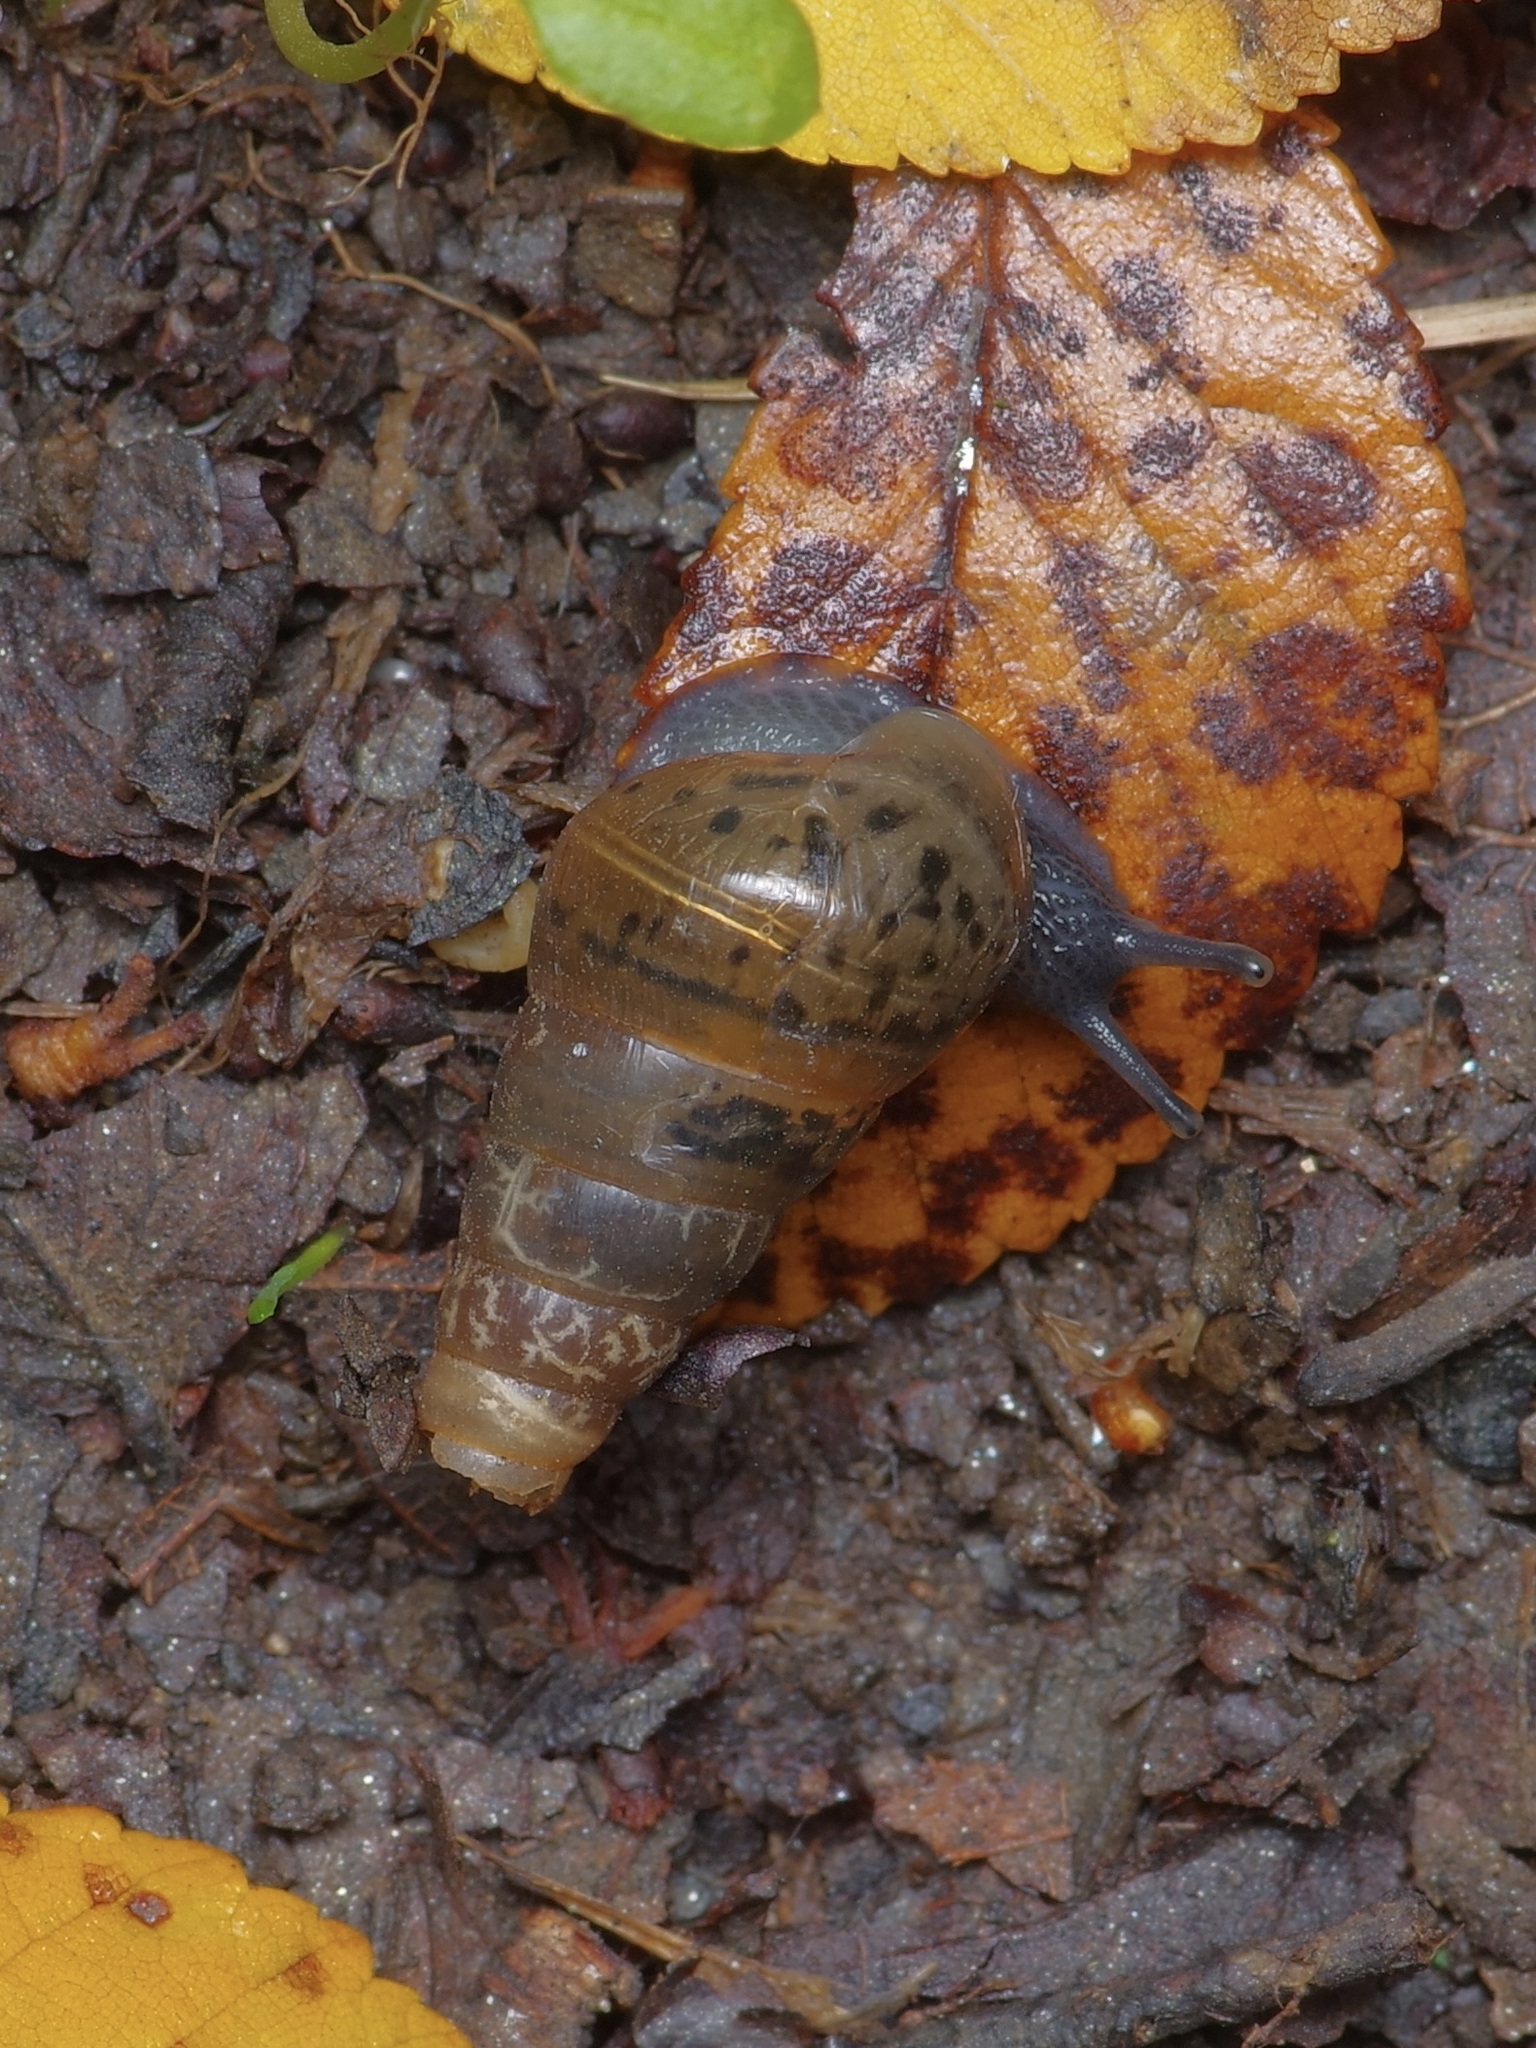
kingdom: Animalia
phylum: Mollusca
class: Gastropoda
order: Stylommatophora
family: Achatinidae
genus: Rumina
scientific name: Rumina decollata
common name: Decollate snail
